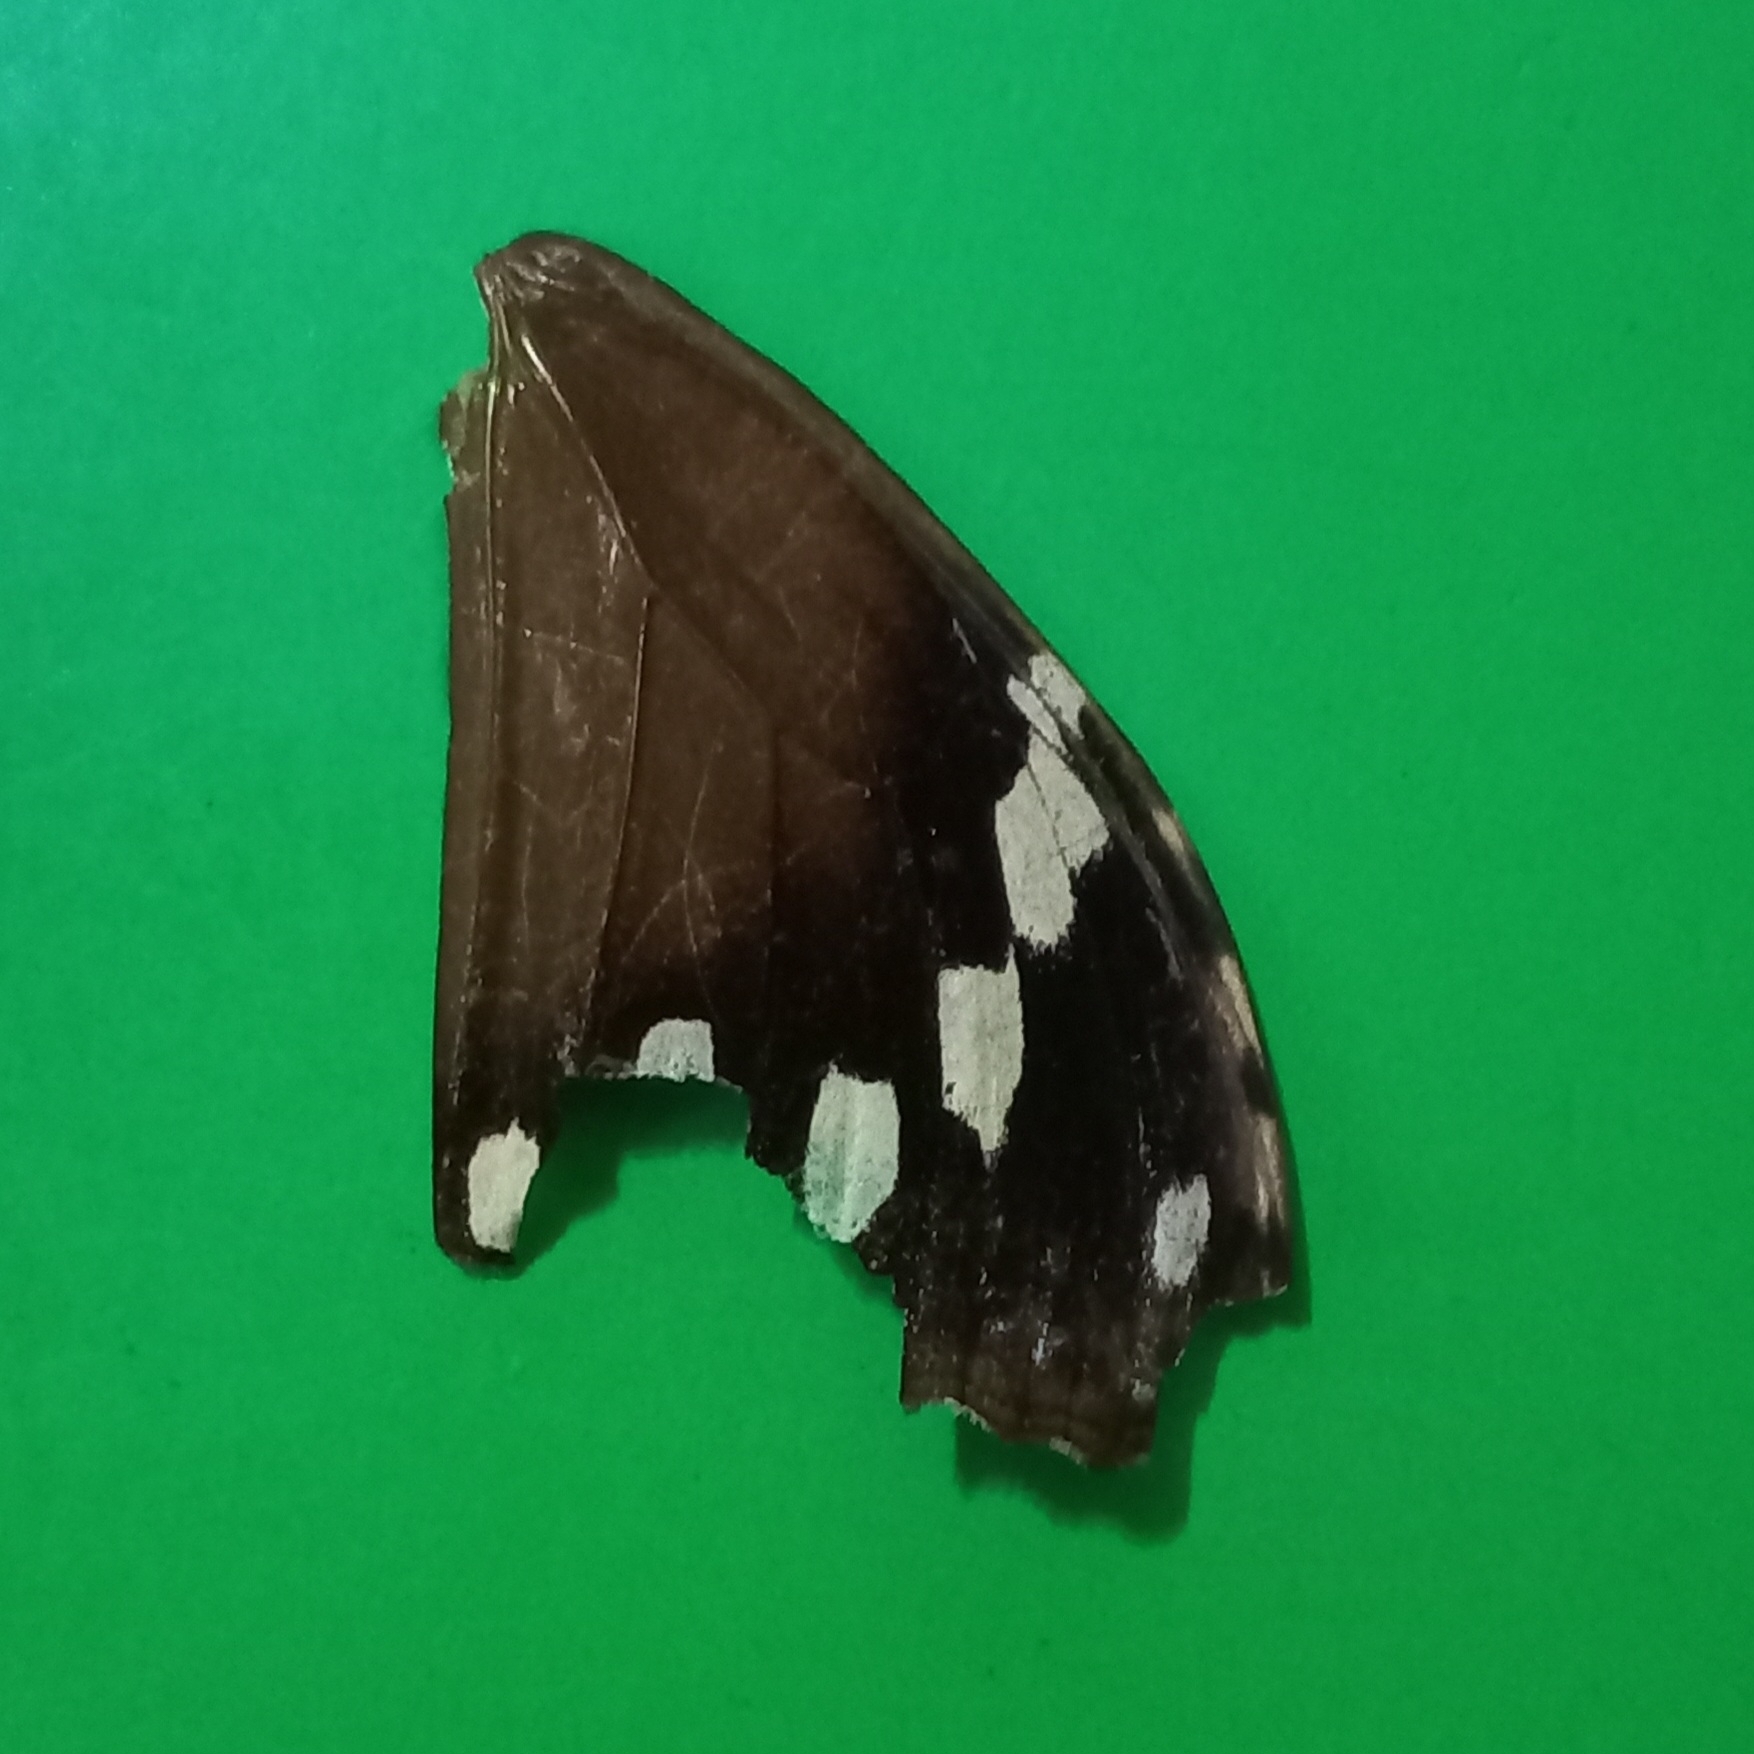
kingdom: Animalia
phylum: Arthropoda
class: Insecta
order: Lepidoptera
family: Nymphalidae
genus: Manataria
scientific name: Manataria maculata
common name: White-spotted satyr
